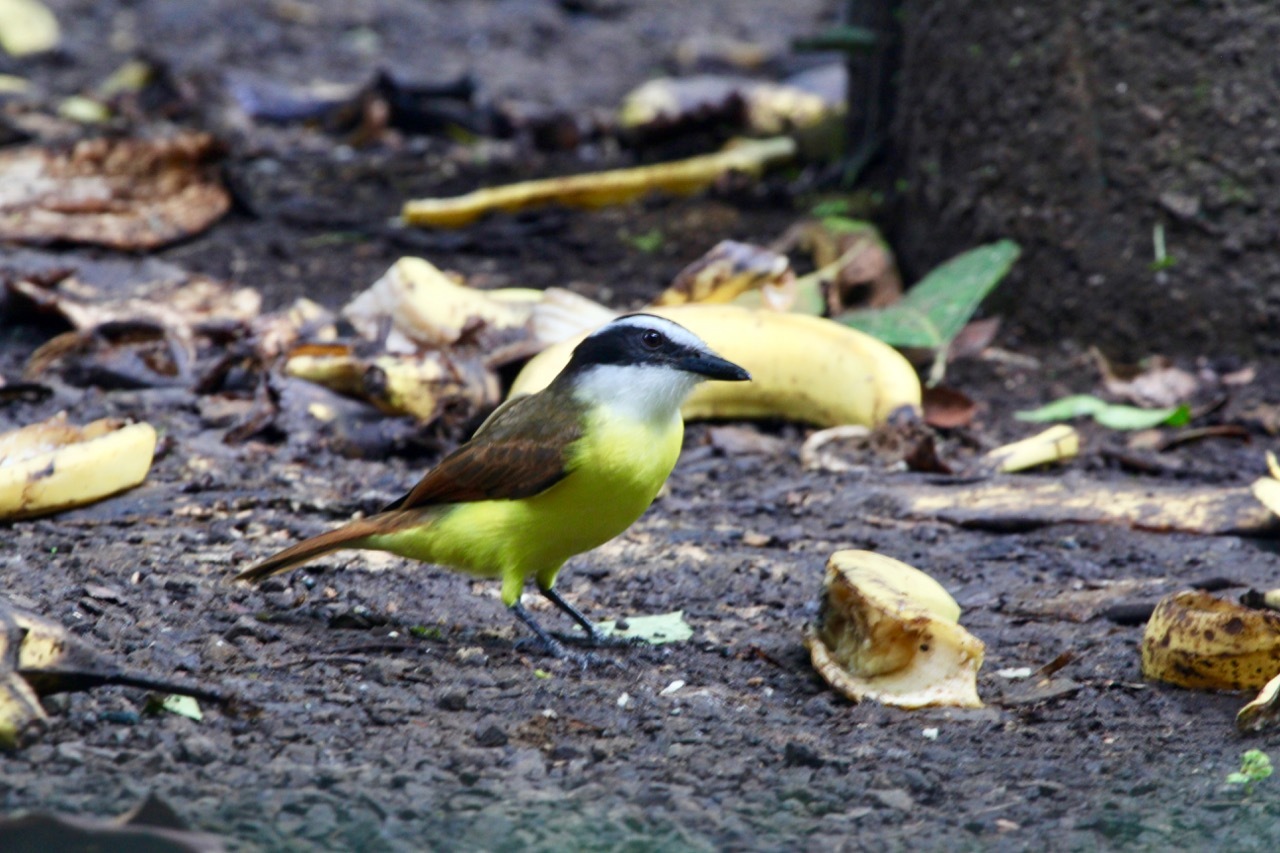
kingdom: Animalia
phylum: Chordata
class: Aves
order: Passeriformes
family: Tyrannidae
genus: Pitangus
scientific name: Pitangus sulphuratus
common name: Great kiskadee
